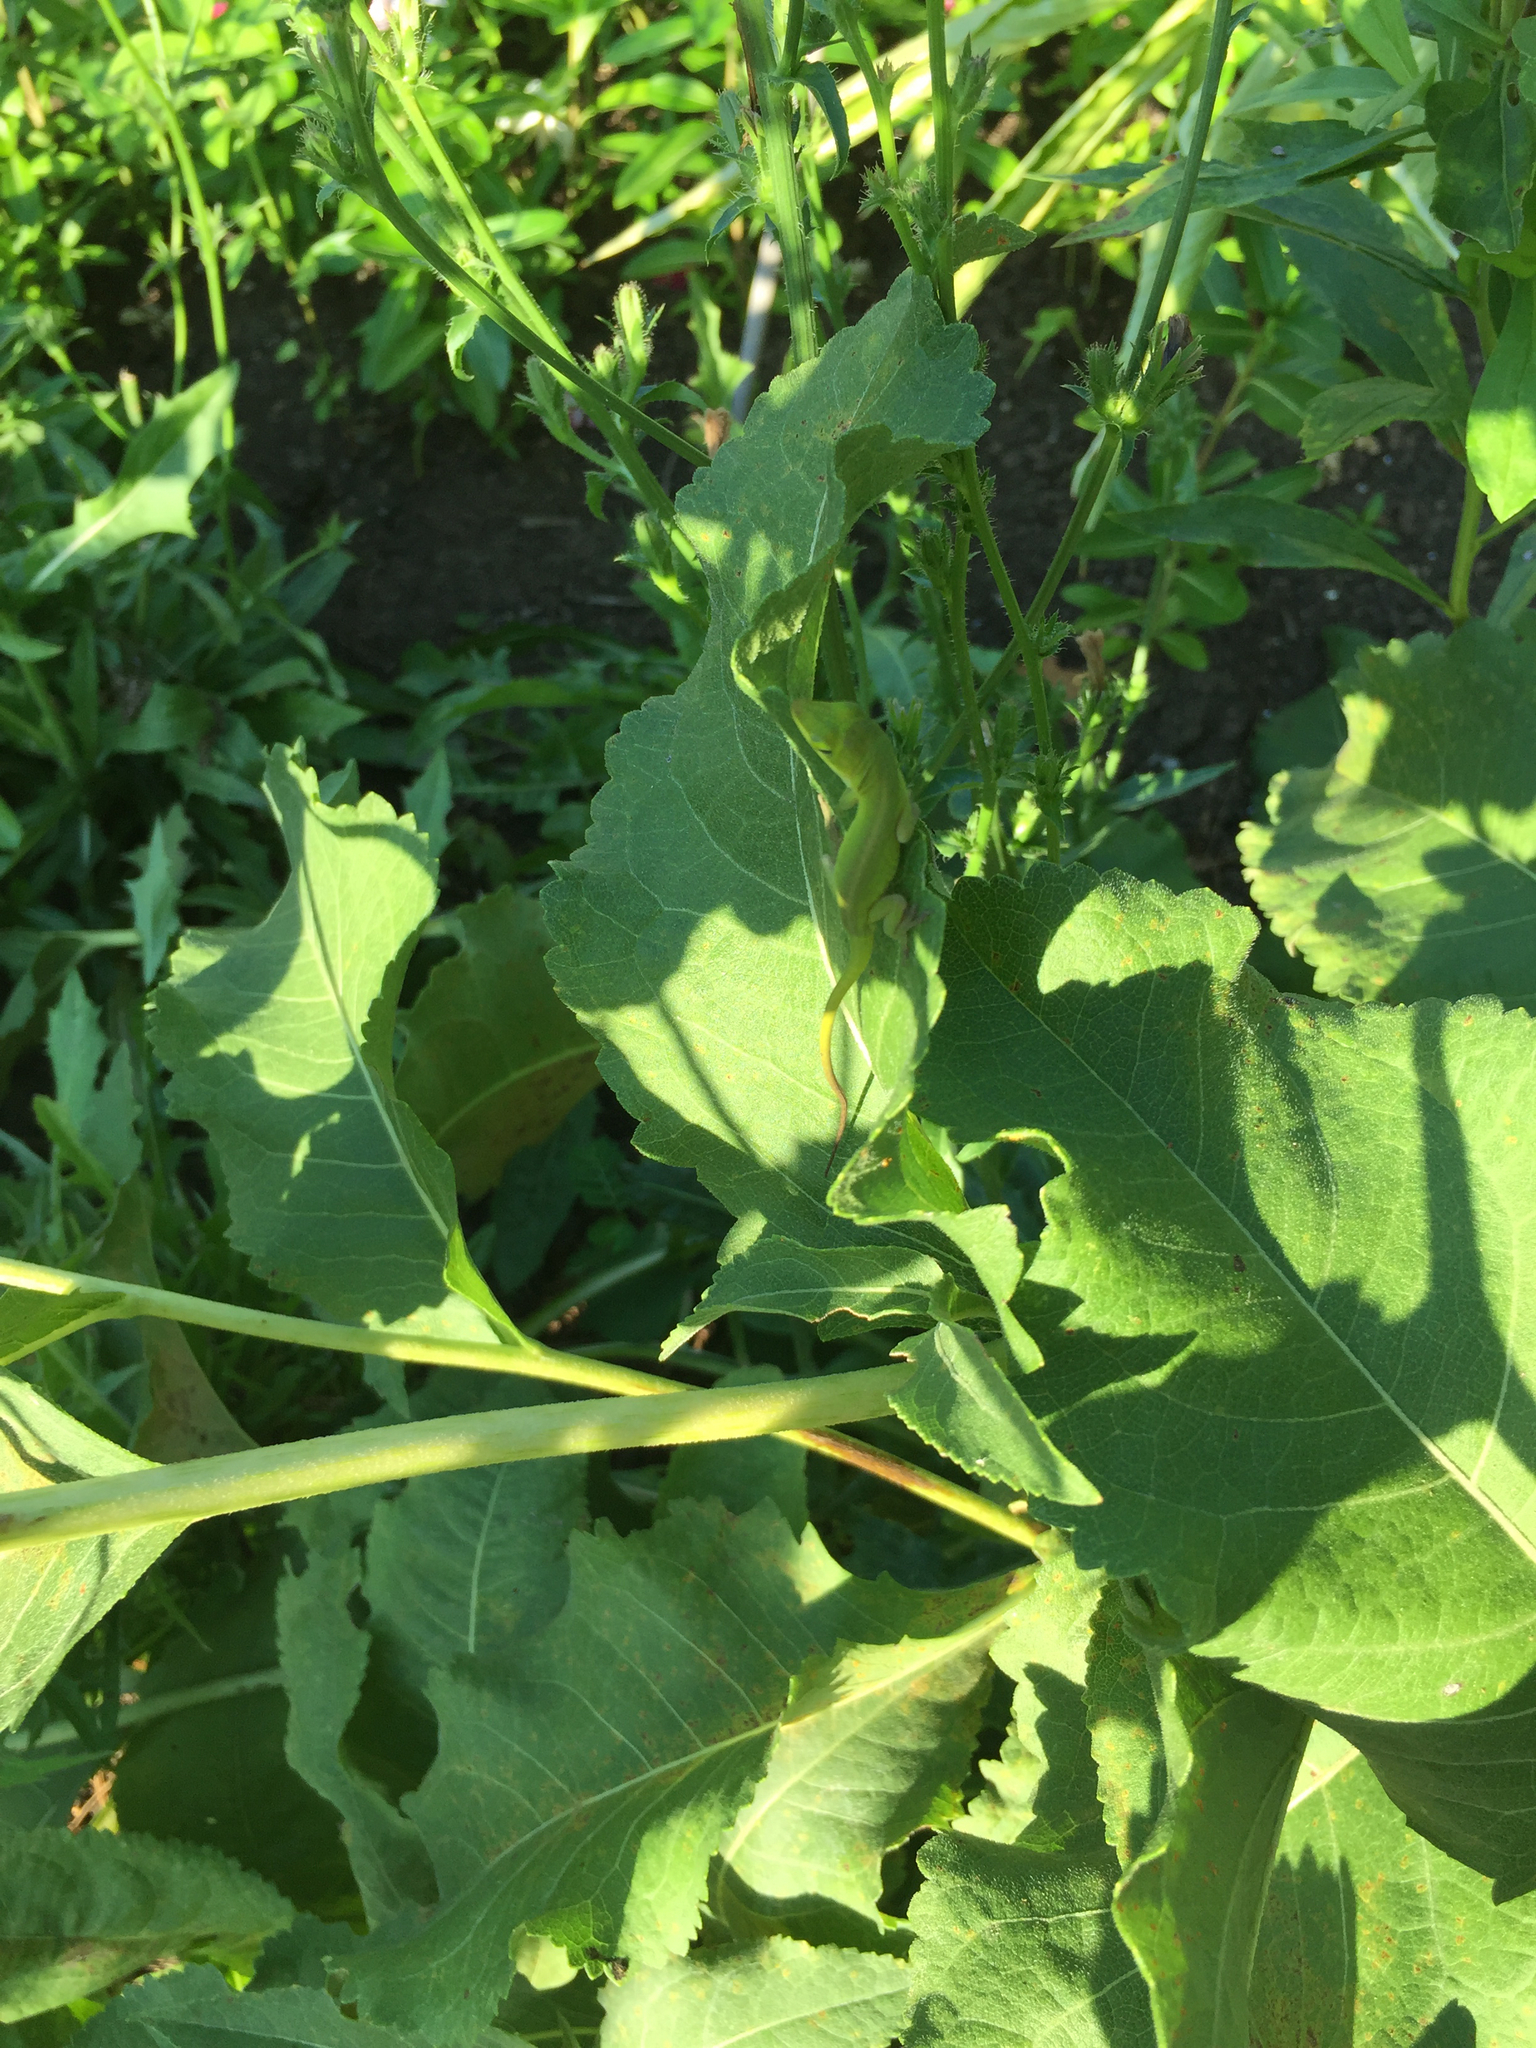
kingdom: Animalia
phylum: Chordata
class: Squamata
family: Dactyloidae
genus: Anolis
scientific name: Anolis carolinensis
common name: Green anole
